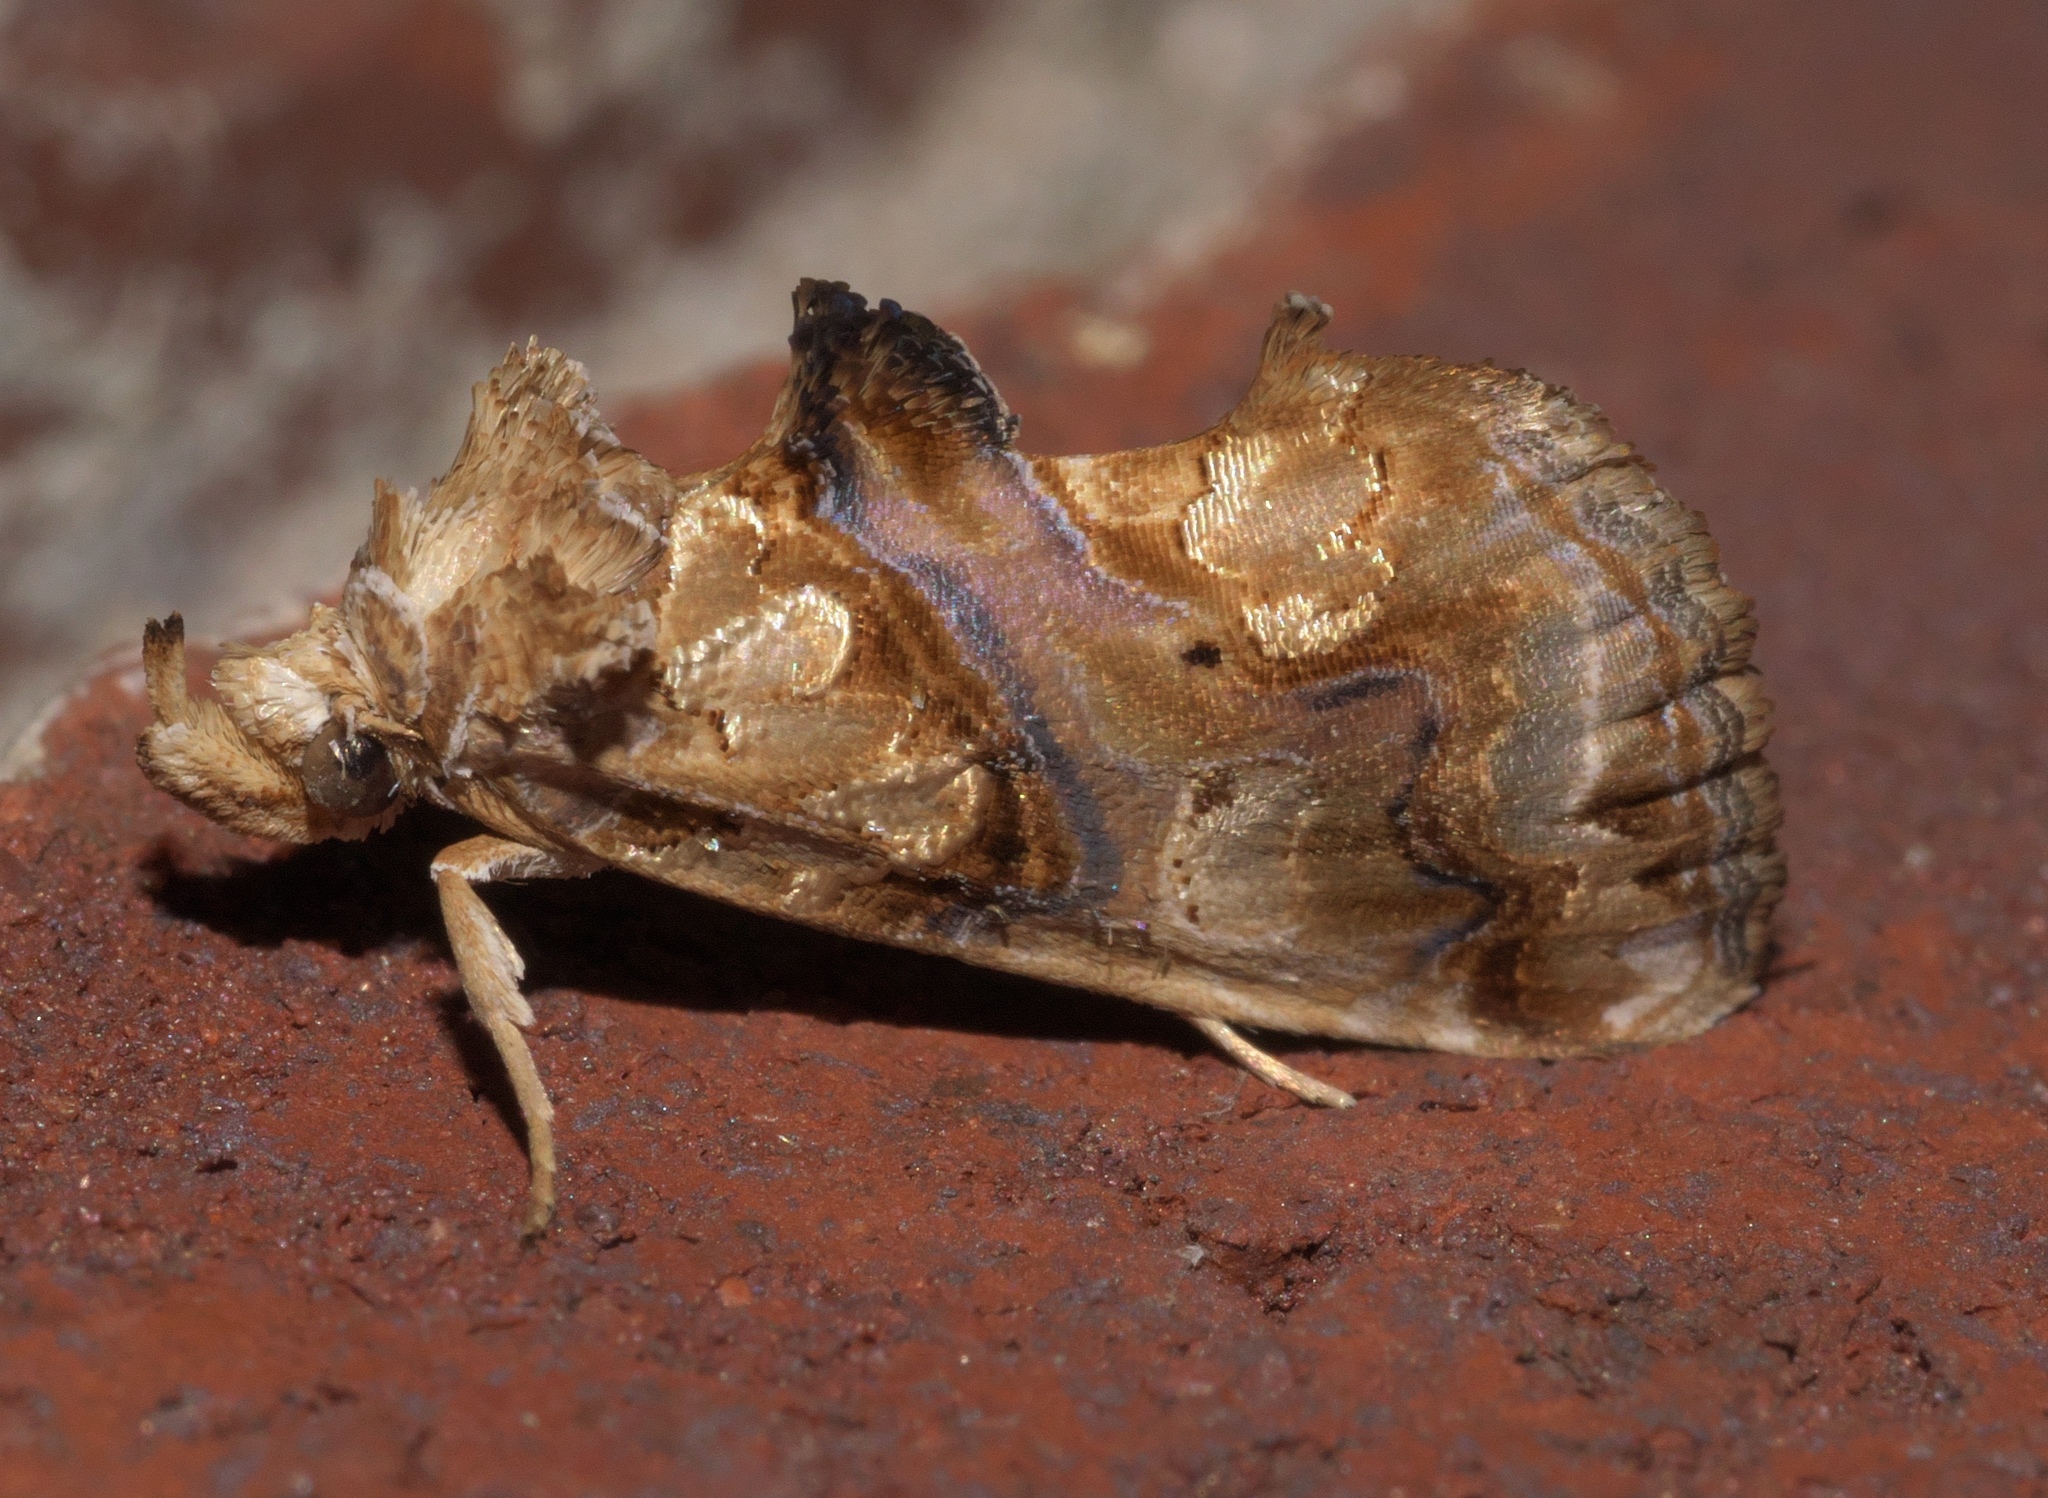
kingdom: Animalia
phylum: Arthropoda
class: Insecta
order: Lepidoptera
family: Erebidae
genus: Plusiodonta
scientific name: Plusiodonta compressipalpis
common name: Moonseed moth
